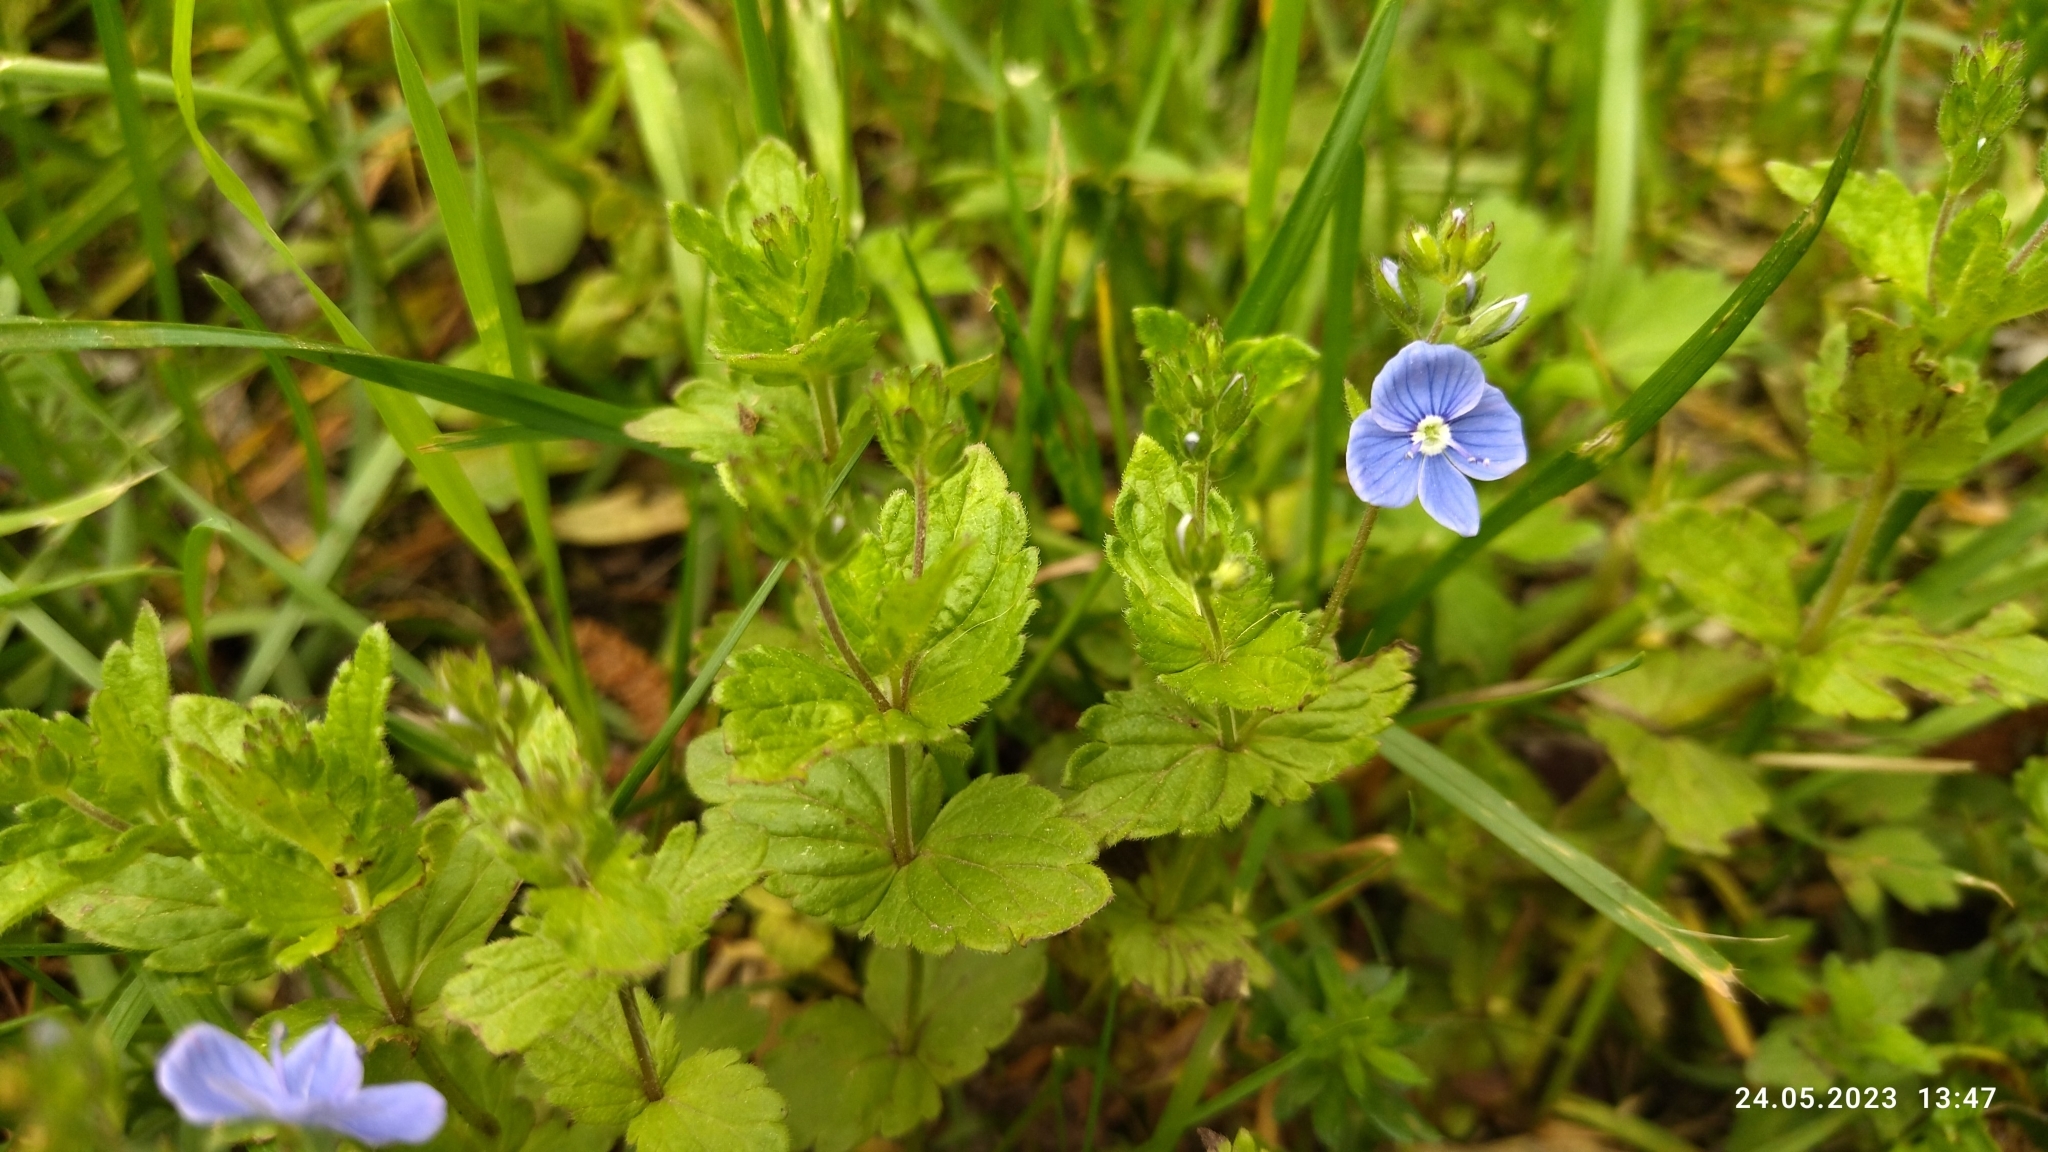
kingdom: Plantae
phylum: Tracheophyta
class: Magnoliopsida
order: Lamiales
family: Plantaginaceae
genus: Veronica
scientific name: Veronica chamaedrys
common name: Germander speedwell
